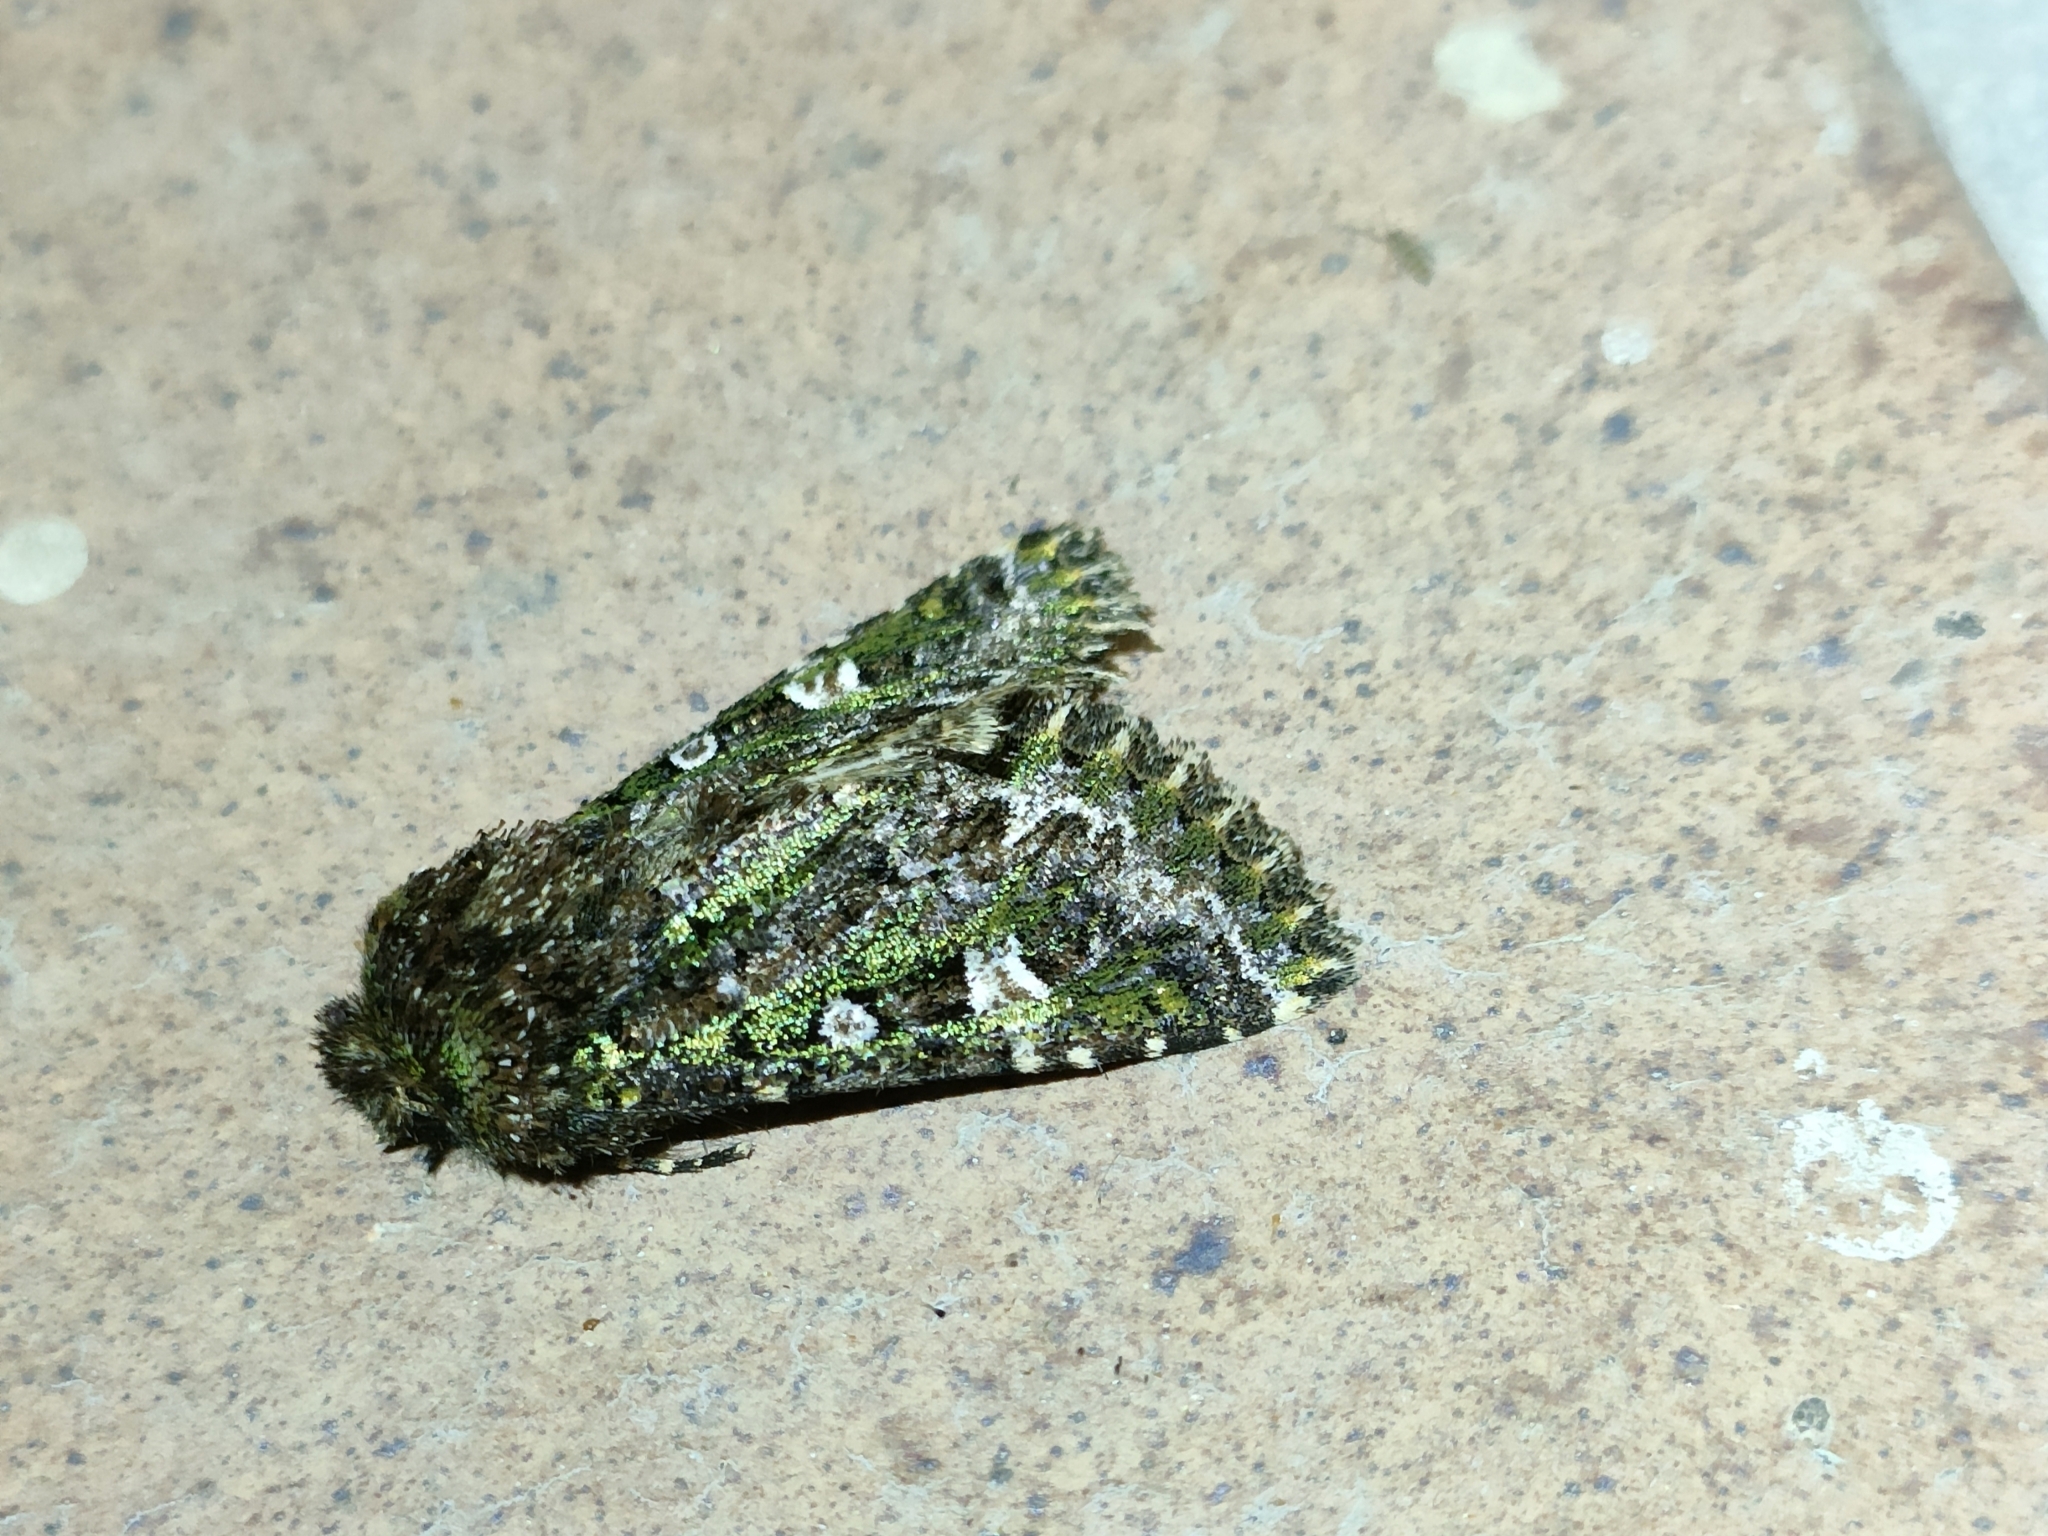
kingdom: Animalia
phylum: Arthropoda
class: Insecta
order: Lepidoptera
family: Noctuidae
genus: Valeria
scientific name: Valeria jaspidea
